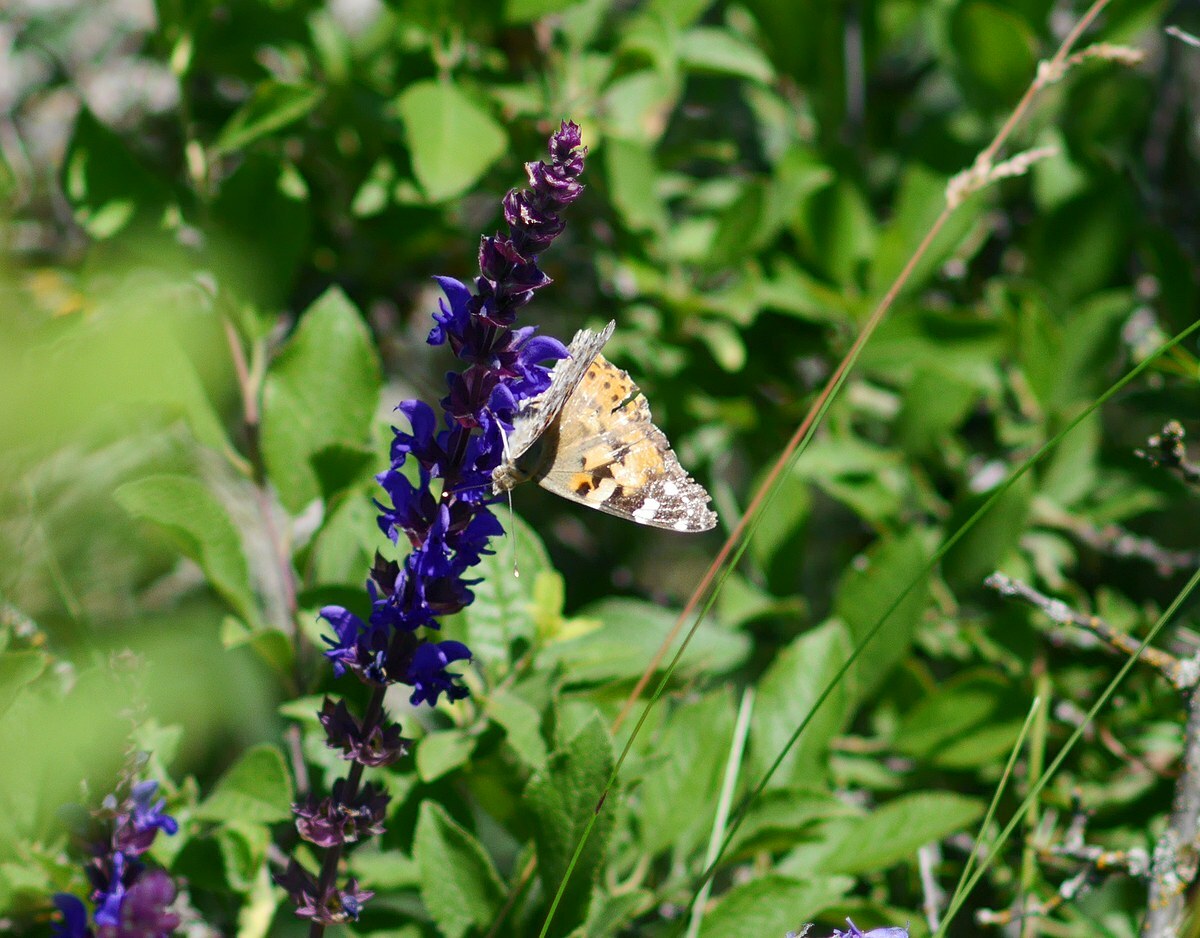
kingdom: Animalia
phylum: Arthropoda
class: Insecta
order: Lepidoptera
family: Nymphalidae
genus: Vanessa
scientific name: Vanessa cardui
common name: Painted lady
